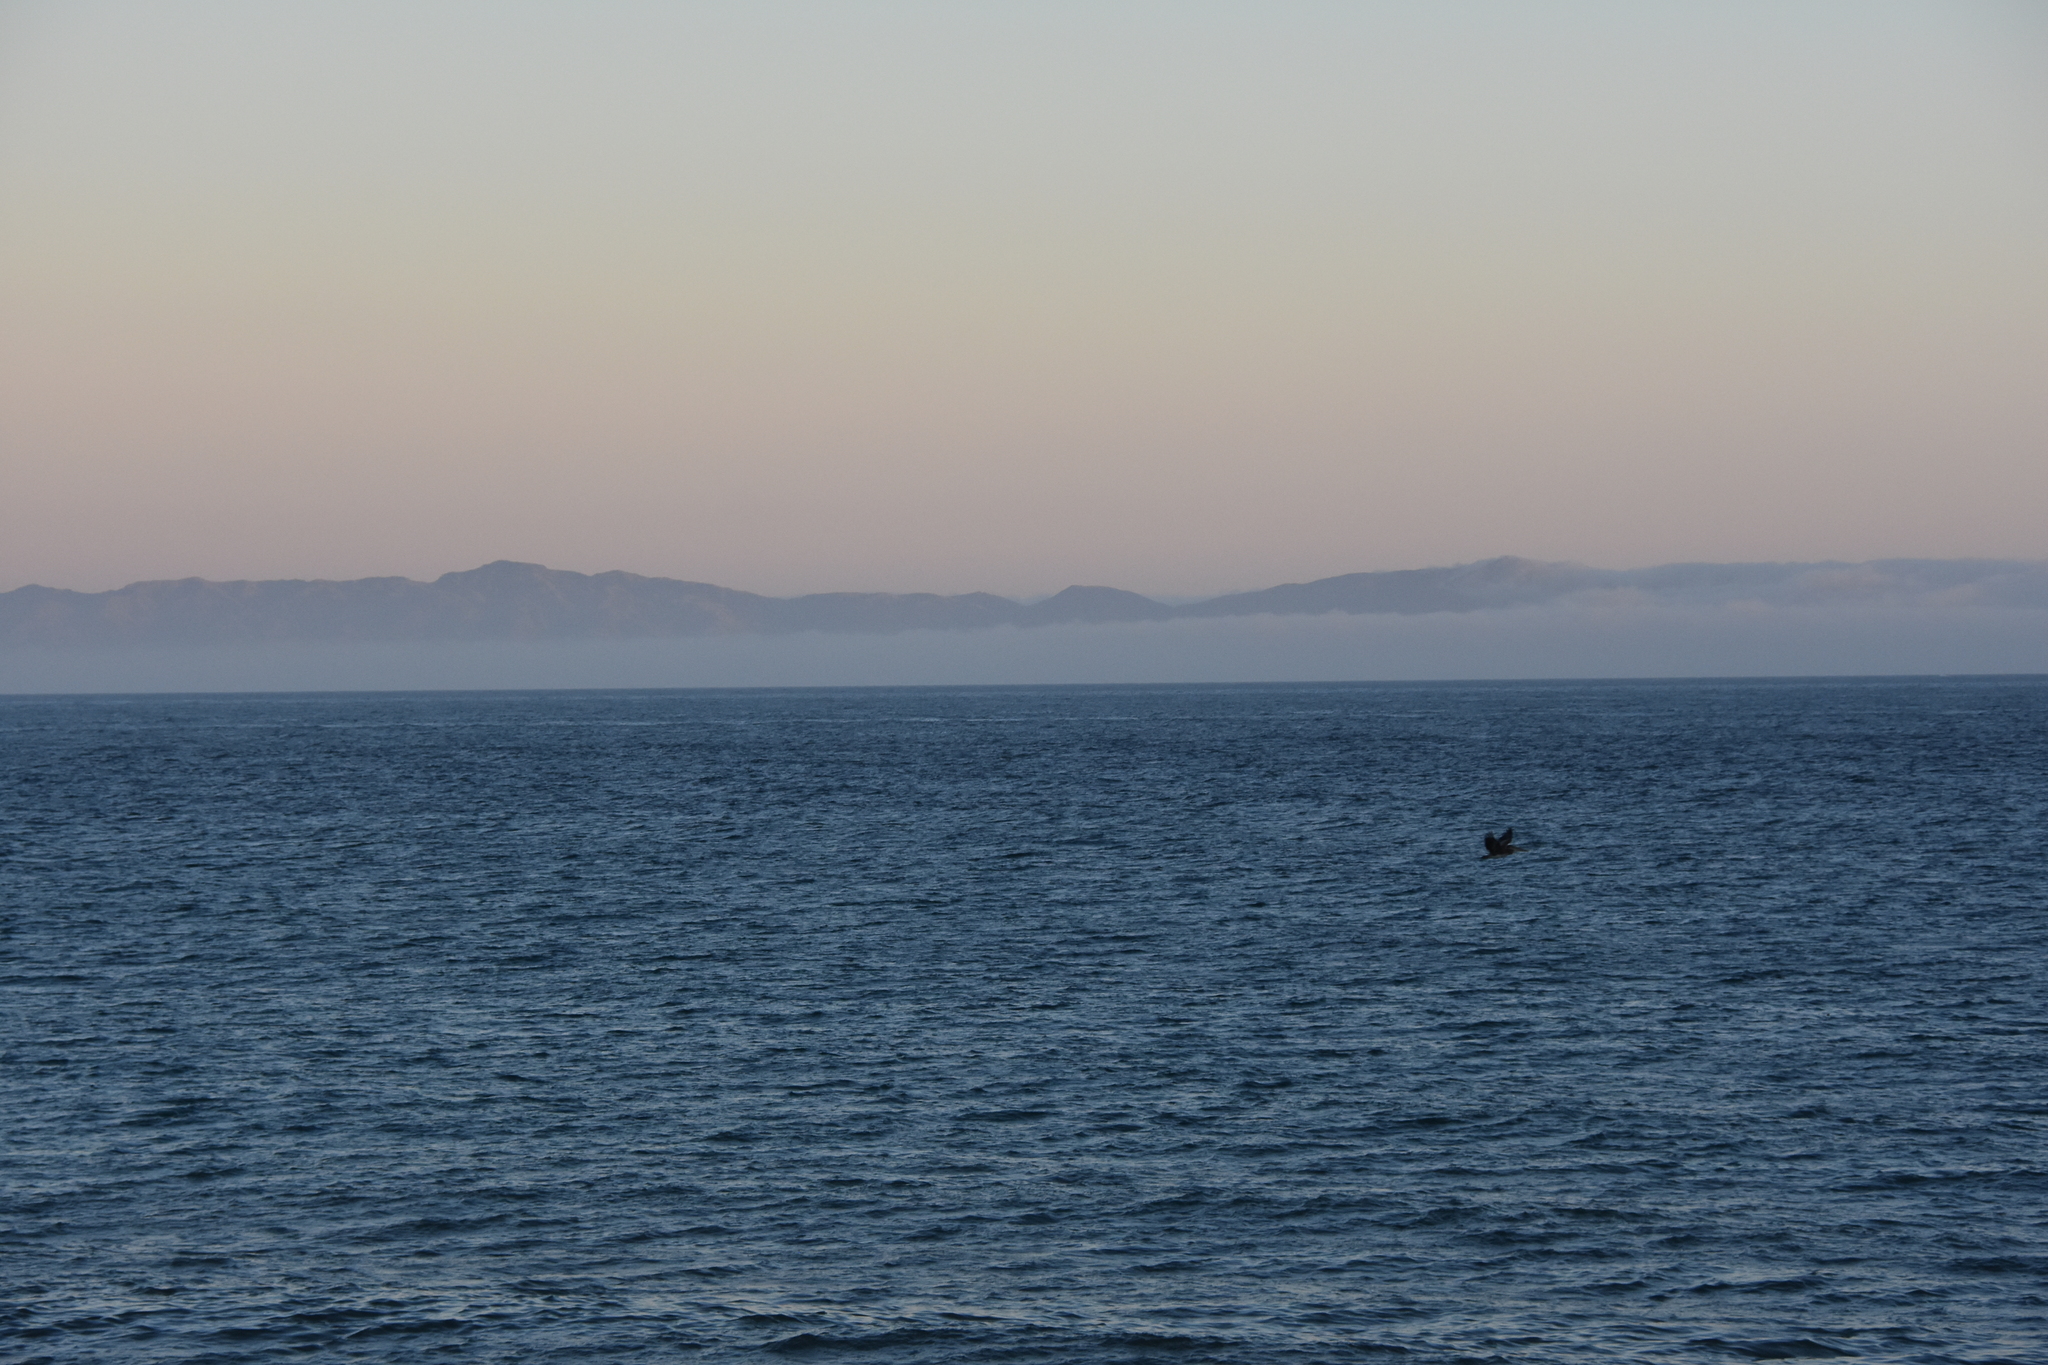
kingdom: Animalia
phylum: Chordata
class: Aves
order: Pelecaniformes
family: Pelecanidae
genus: Pelecanus
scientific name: Pelecanus occidentalis
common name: Brown pelican
